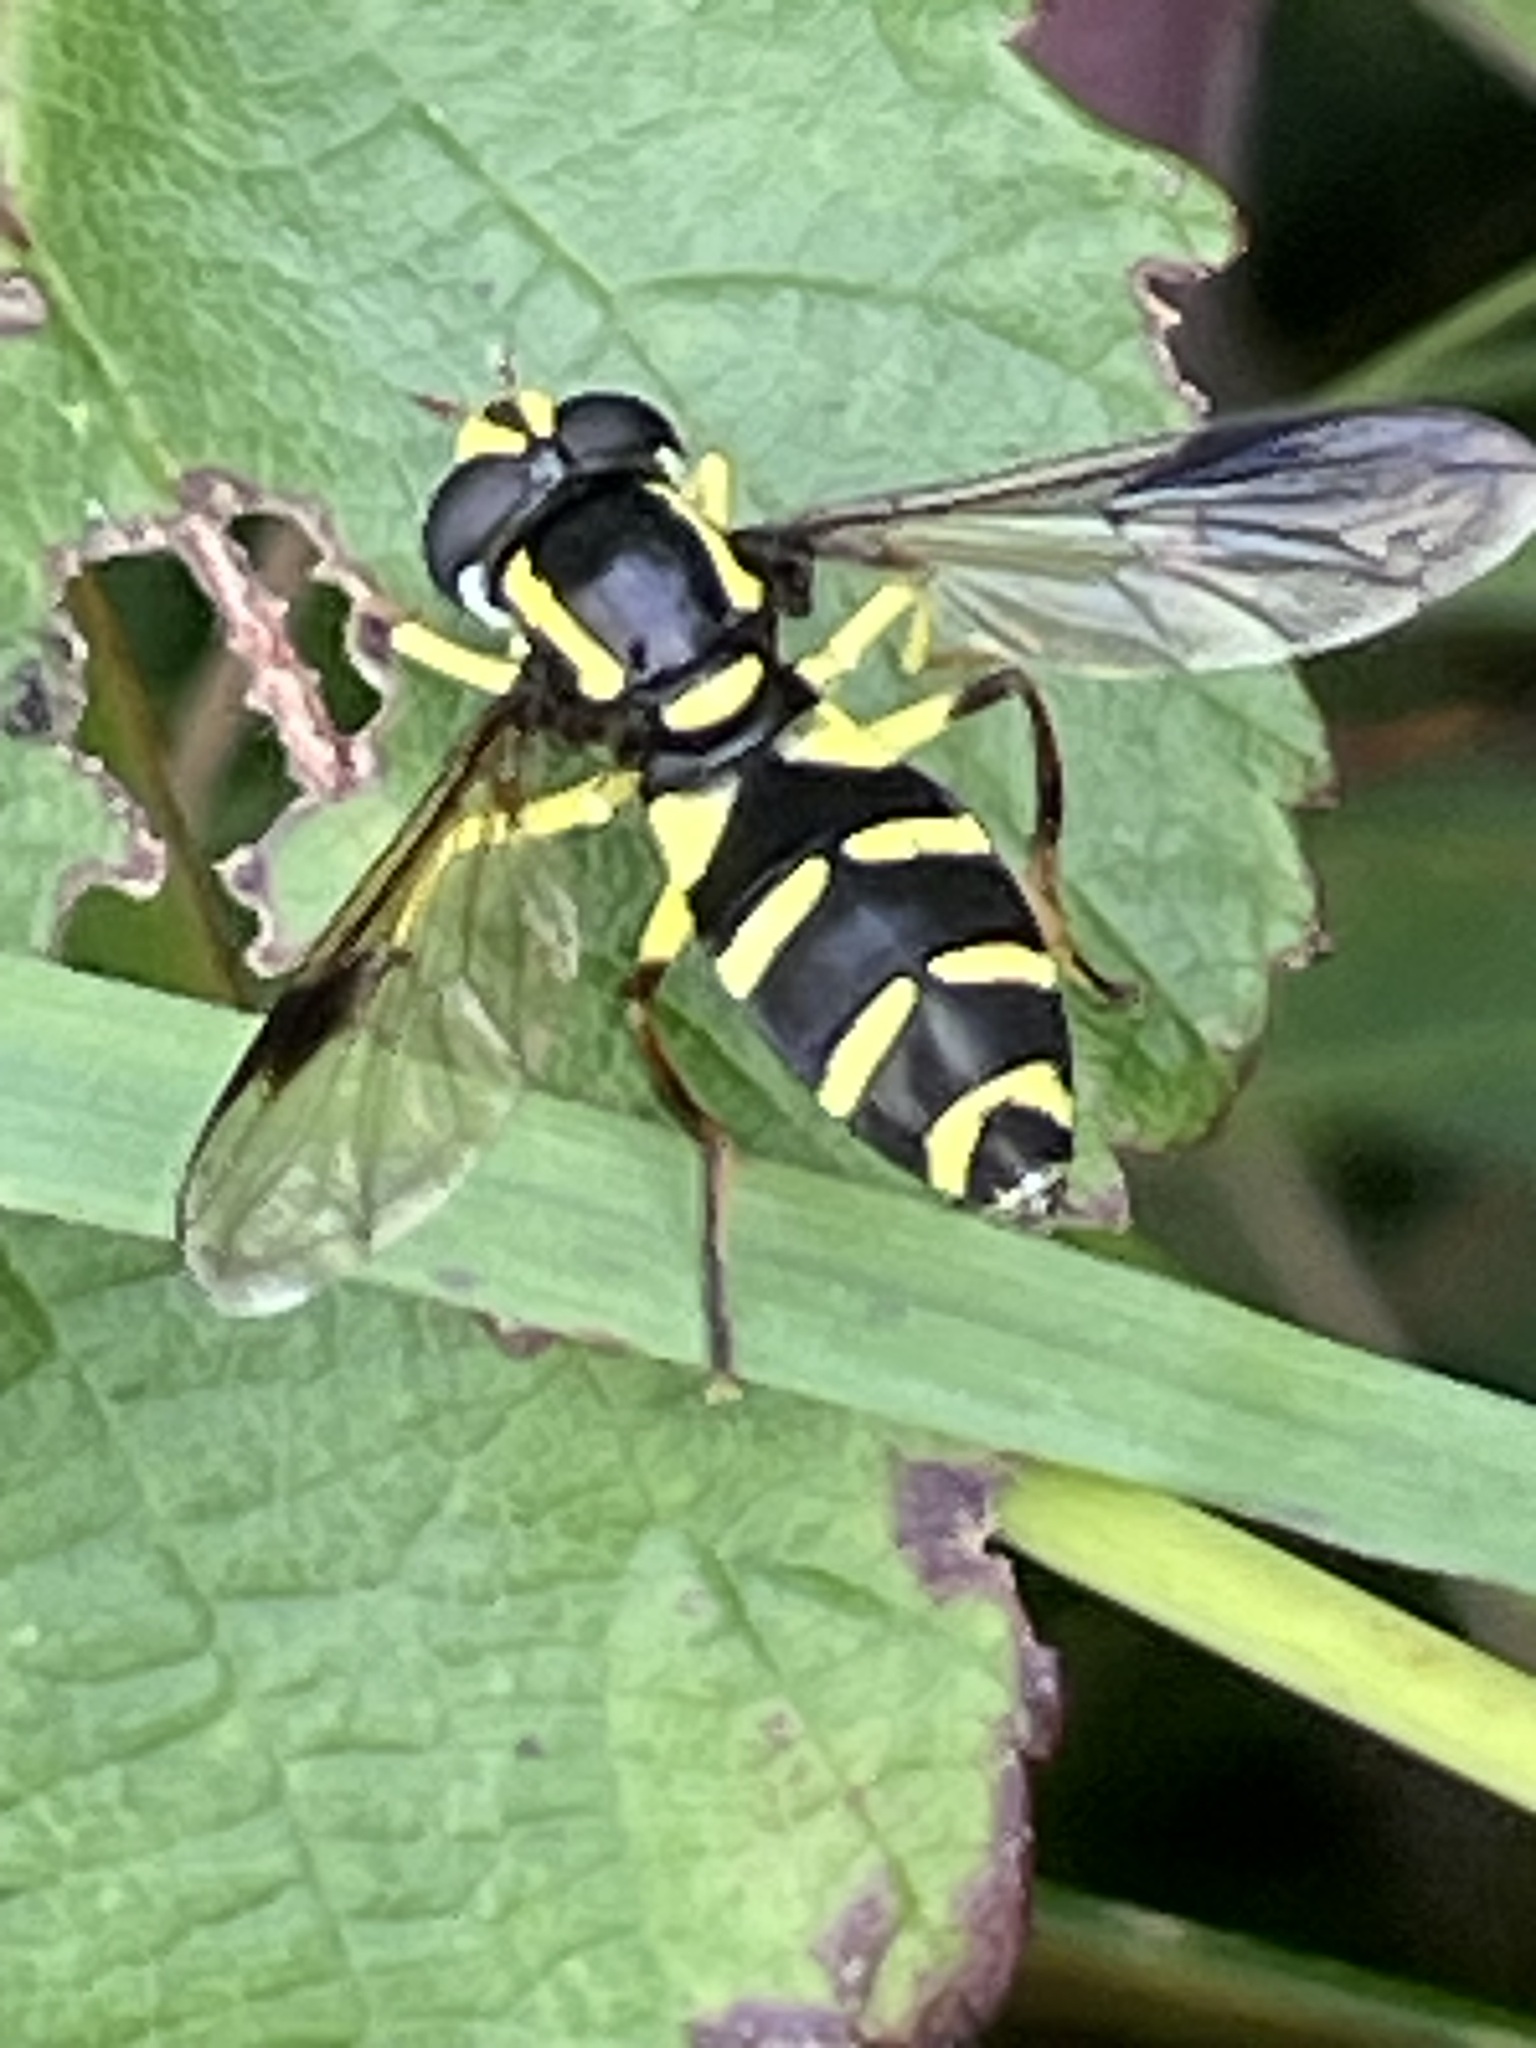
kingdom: Animalia
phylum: Arthropoda
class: Insecta
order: Diptera
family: Syrphidae
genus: Philhelius
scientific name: Philhelius pedissequum
